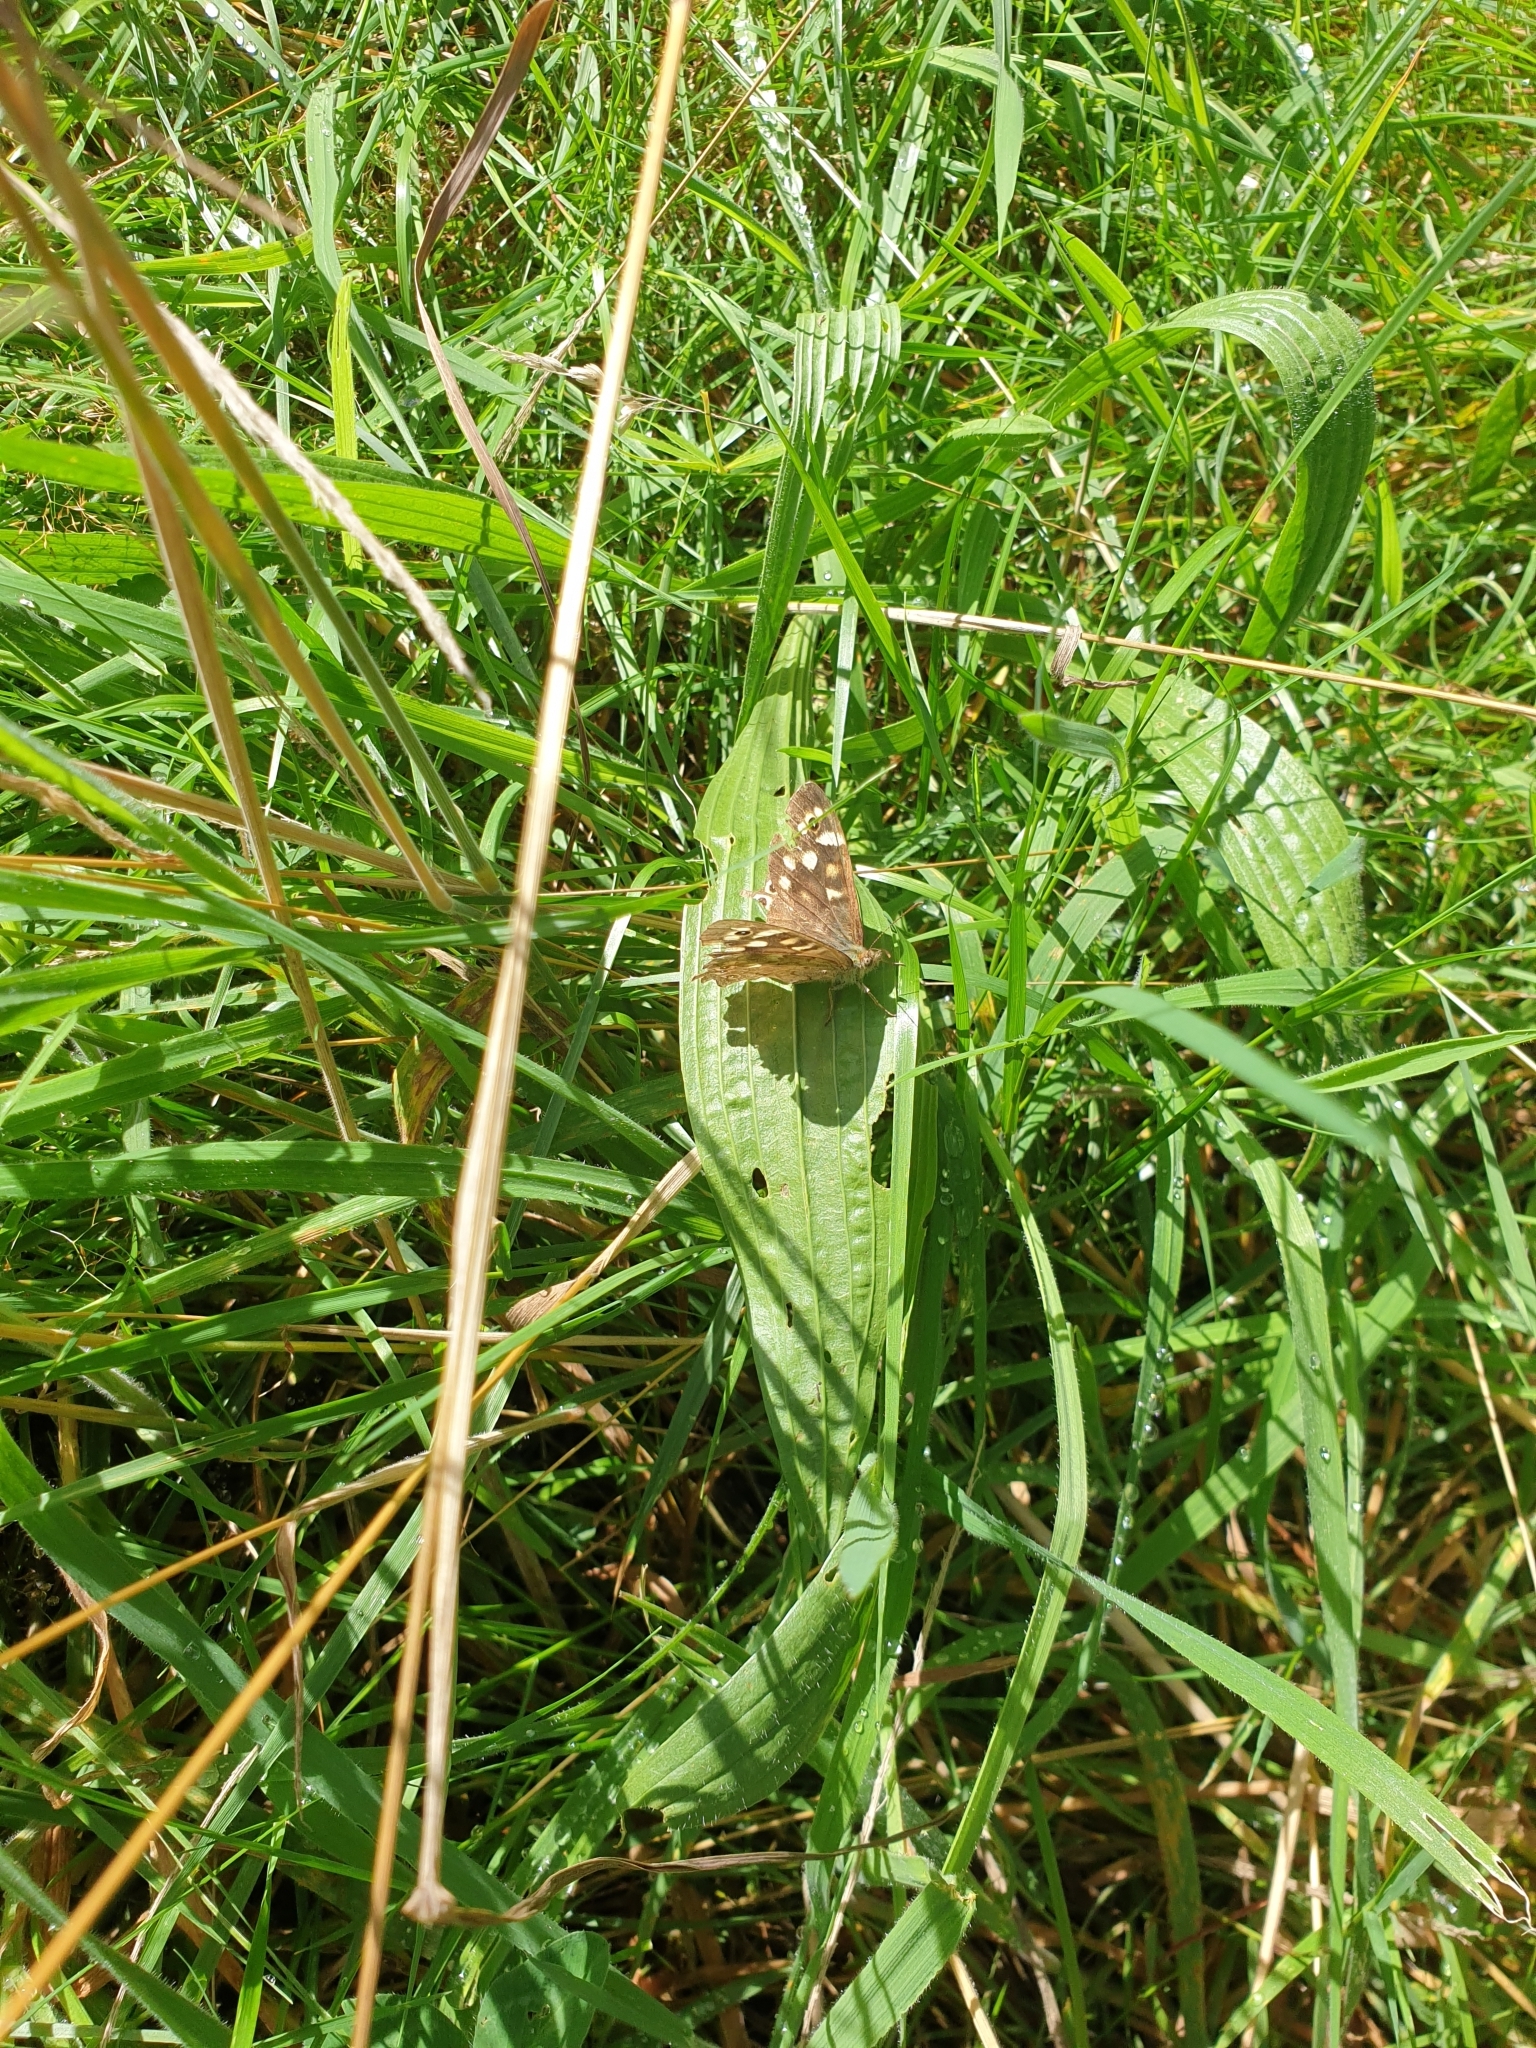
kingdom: Animalia
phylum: Arthropoda
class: Insecta
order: Lepidoptera
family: Nymphalidae
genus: Pararge
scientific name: Pararge aegeria
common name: Speckled wood
